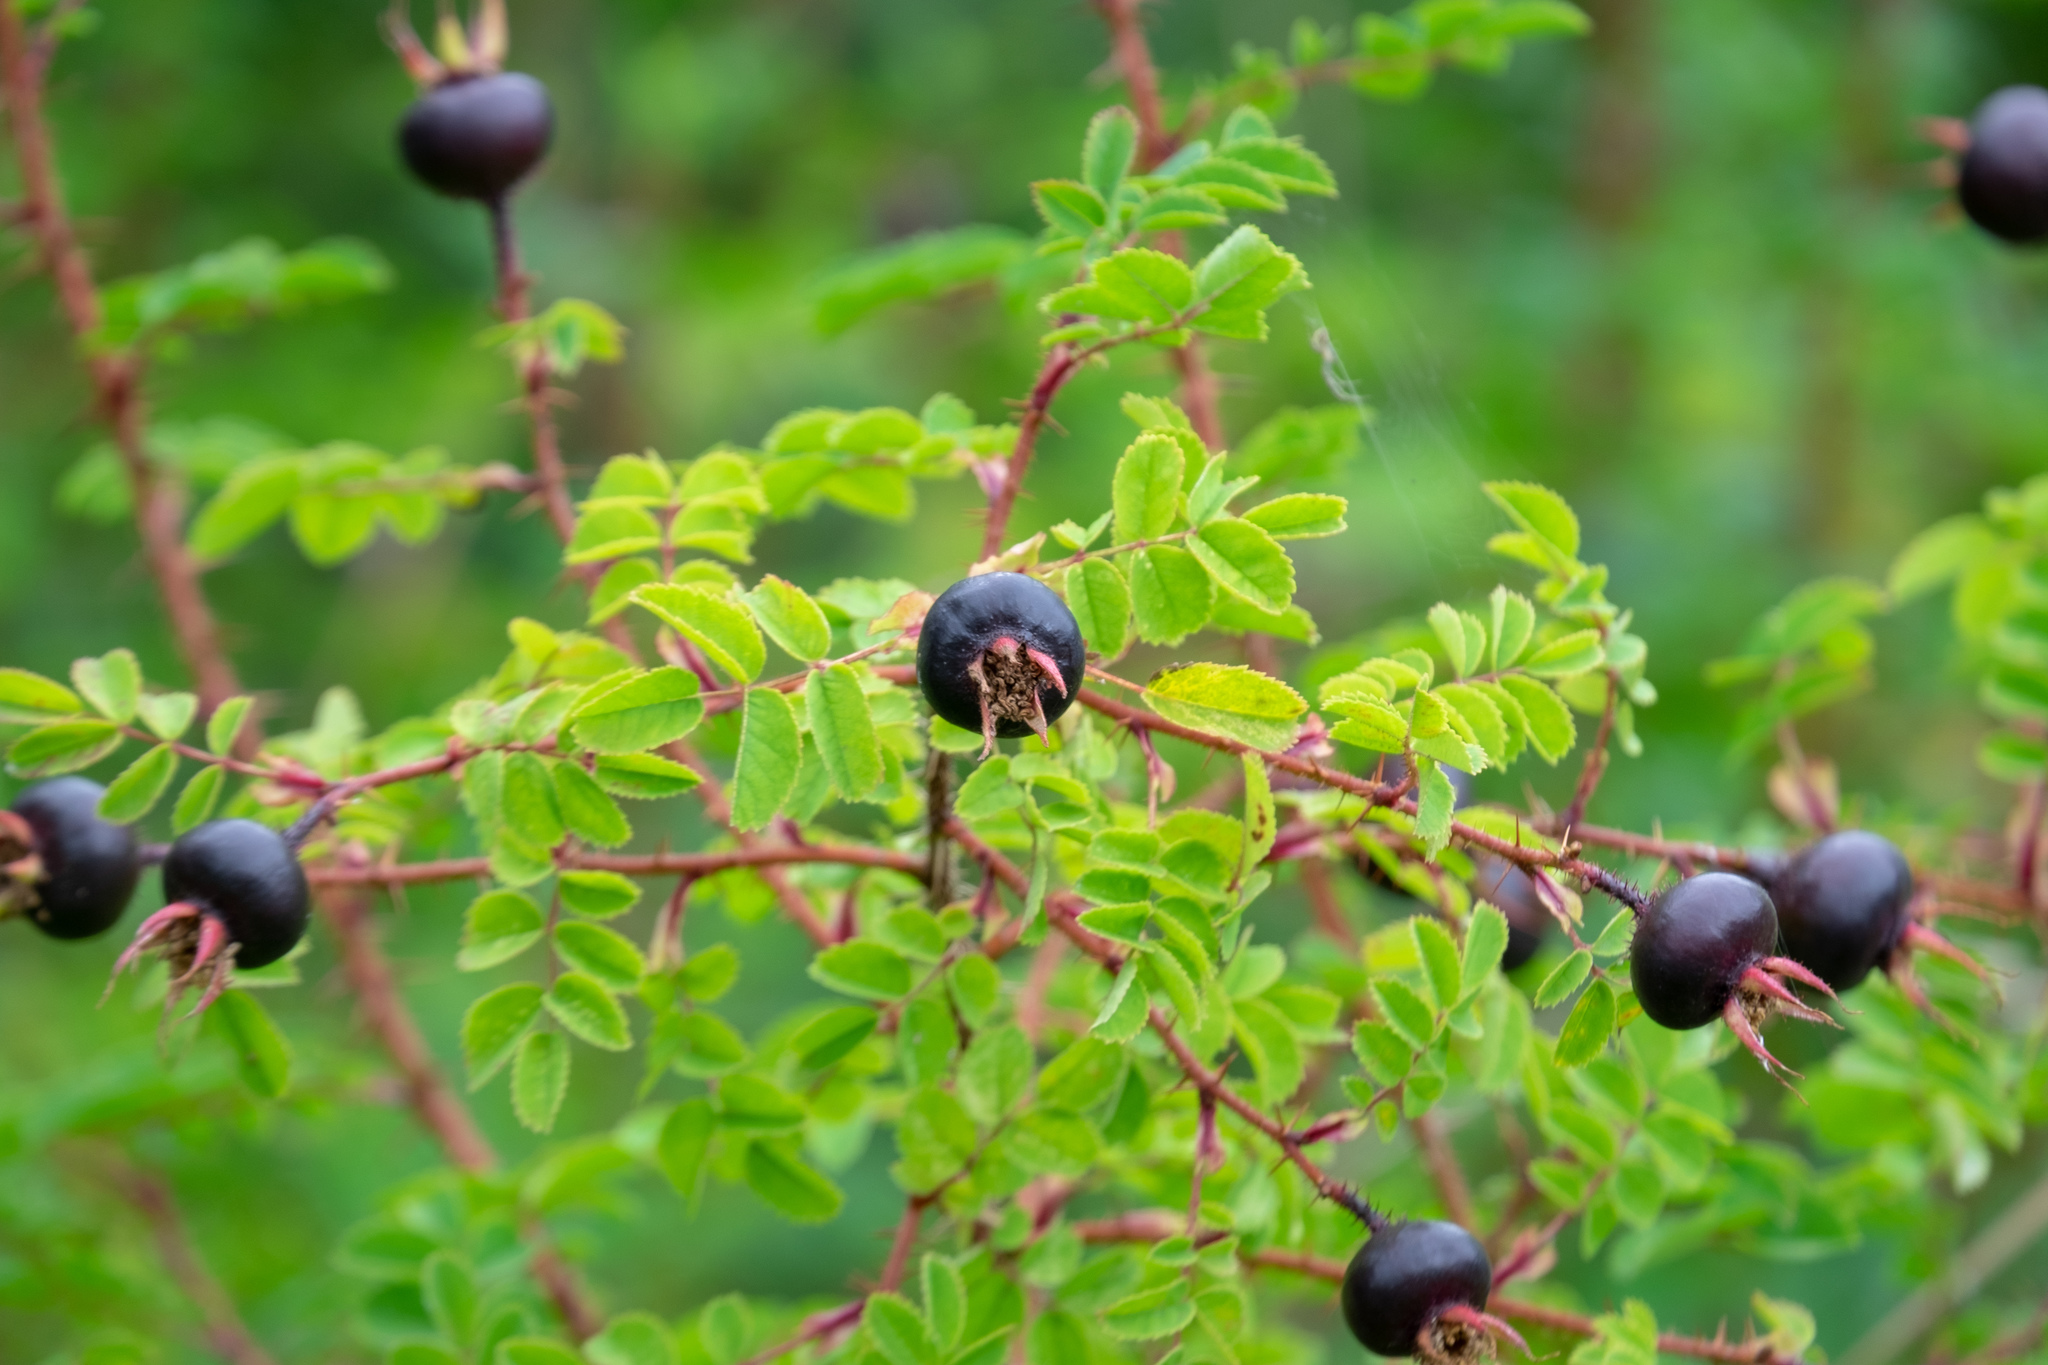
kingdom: Plantae
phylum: Tracheophyta
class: Magnoliopsida
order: Rosales
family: Rosaceae
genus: Rosa
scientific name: Rosa spinosissima
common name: Burnet rose
